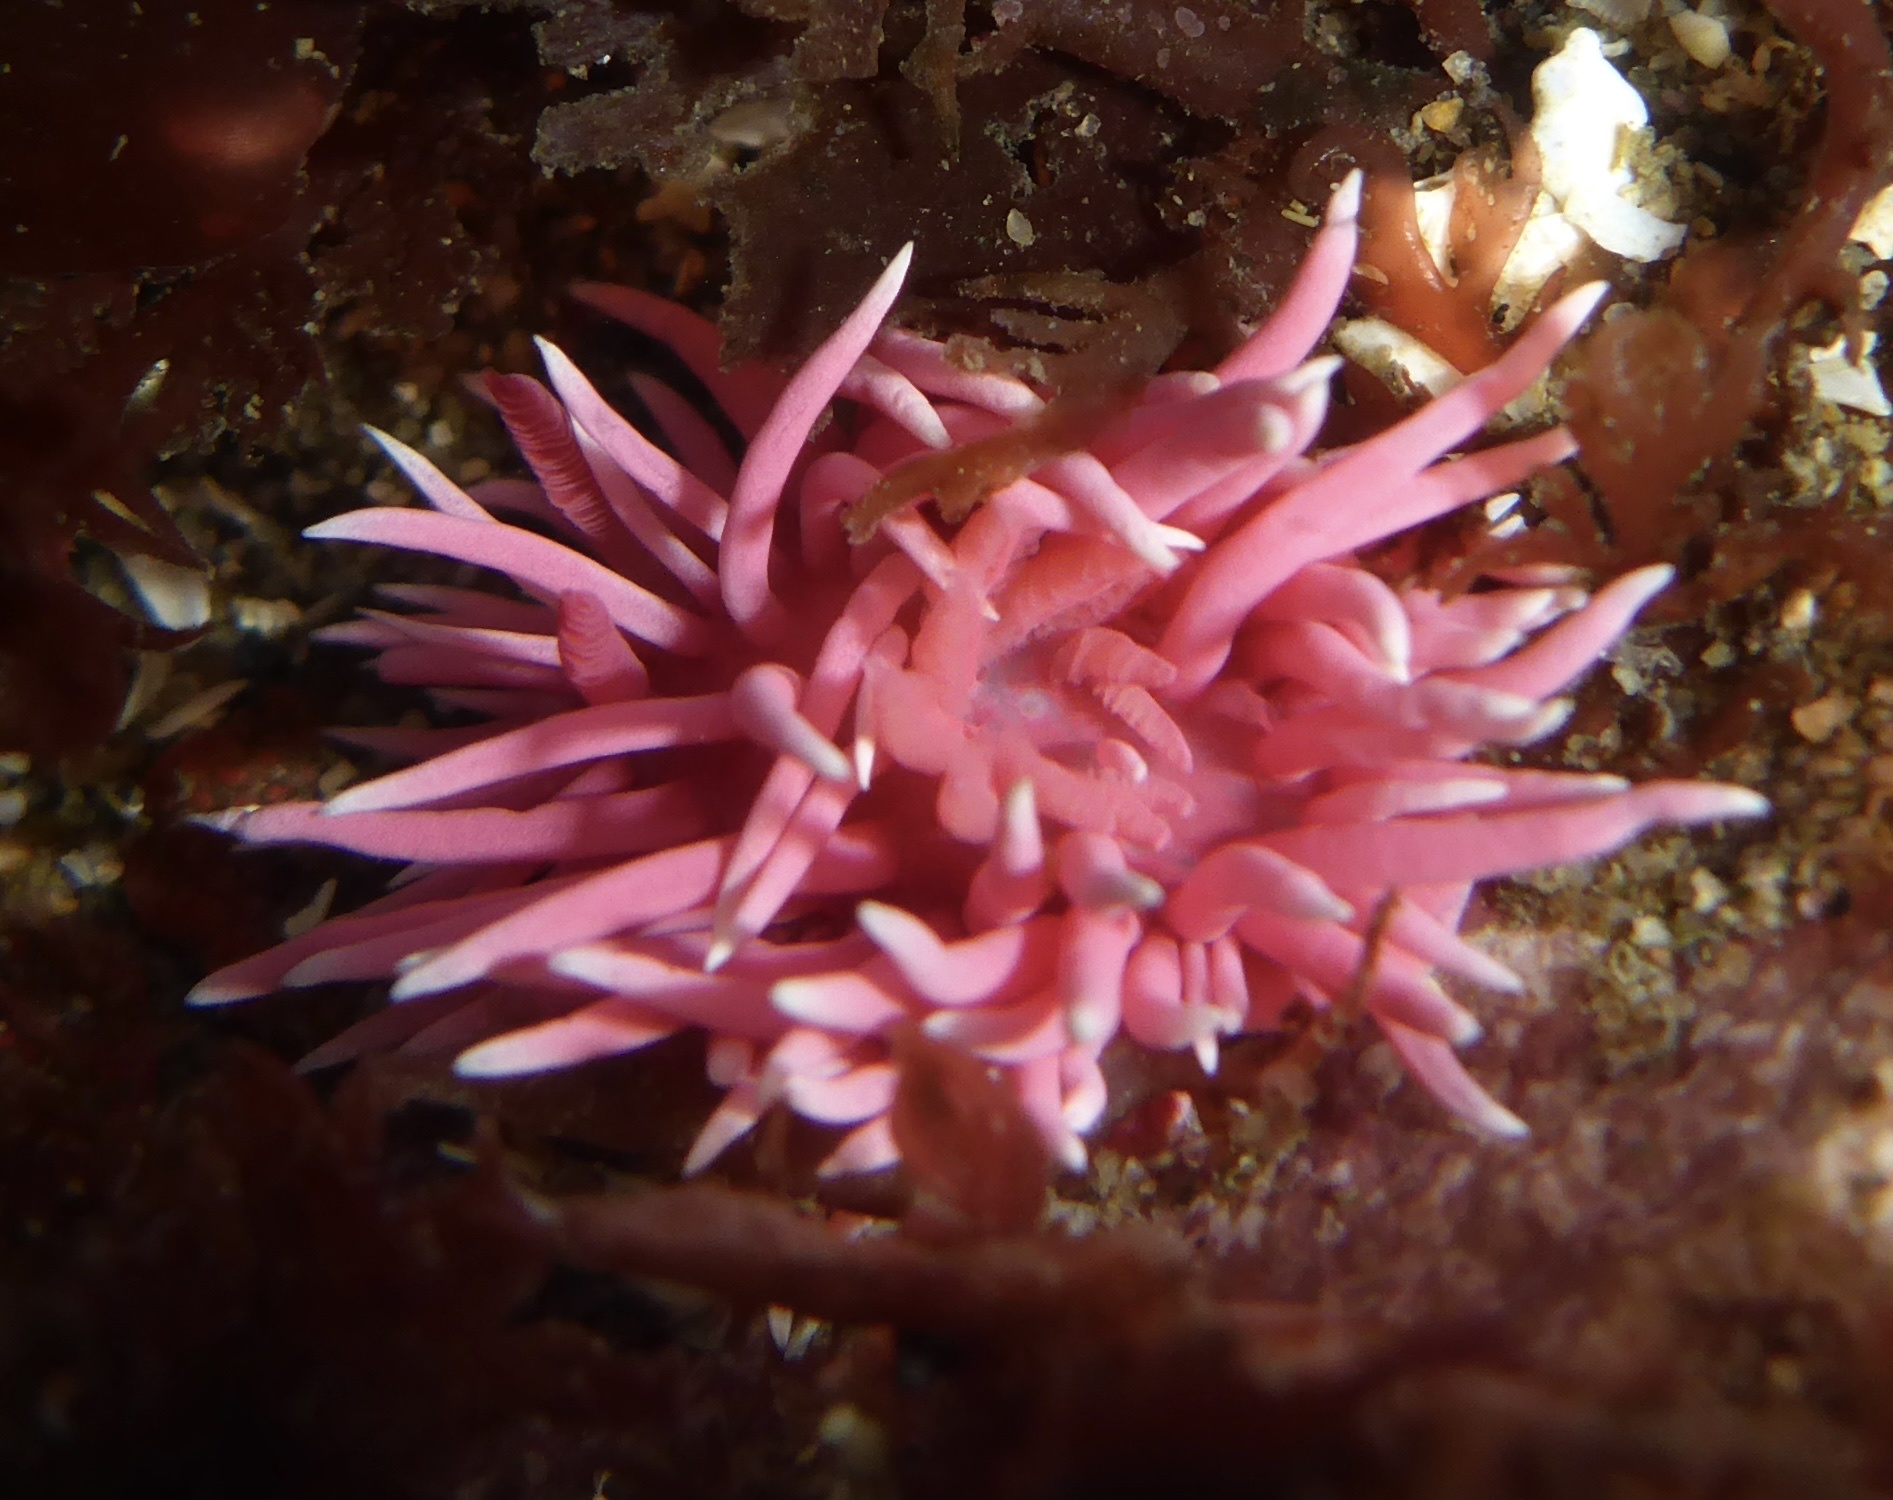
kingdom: Animalia
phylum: Mollusca
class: Gastropoda
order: Nudibranchia
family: Goniodorididae
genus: Okenia
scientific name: Okenia
